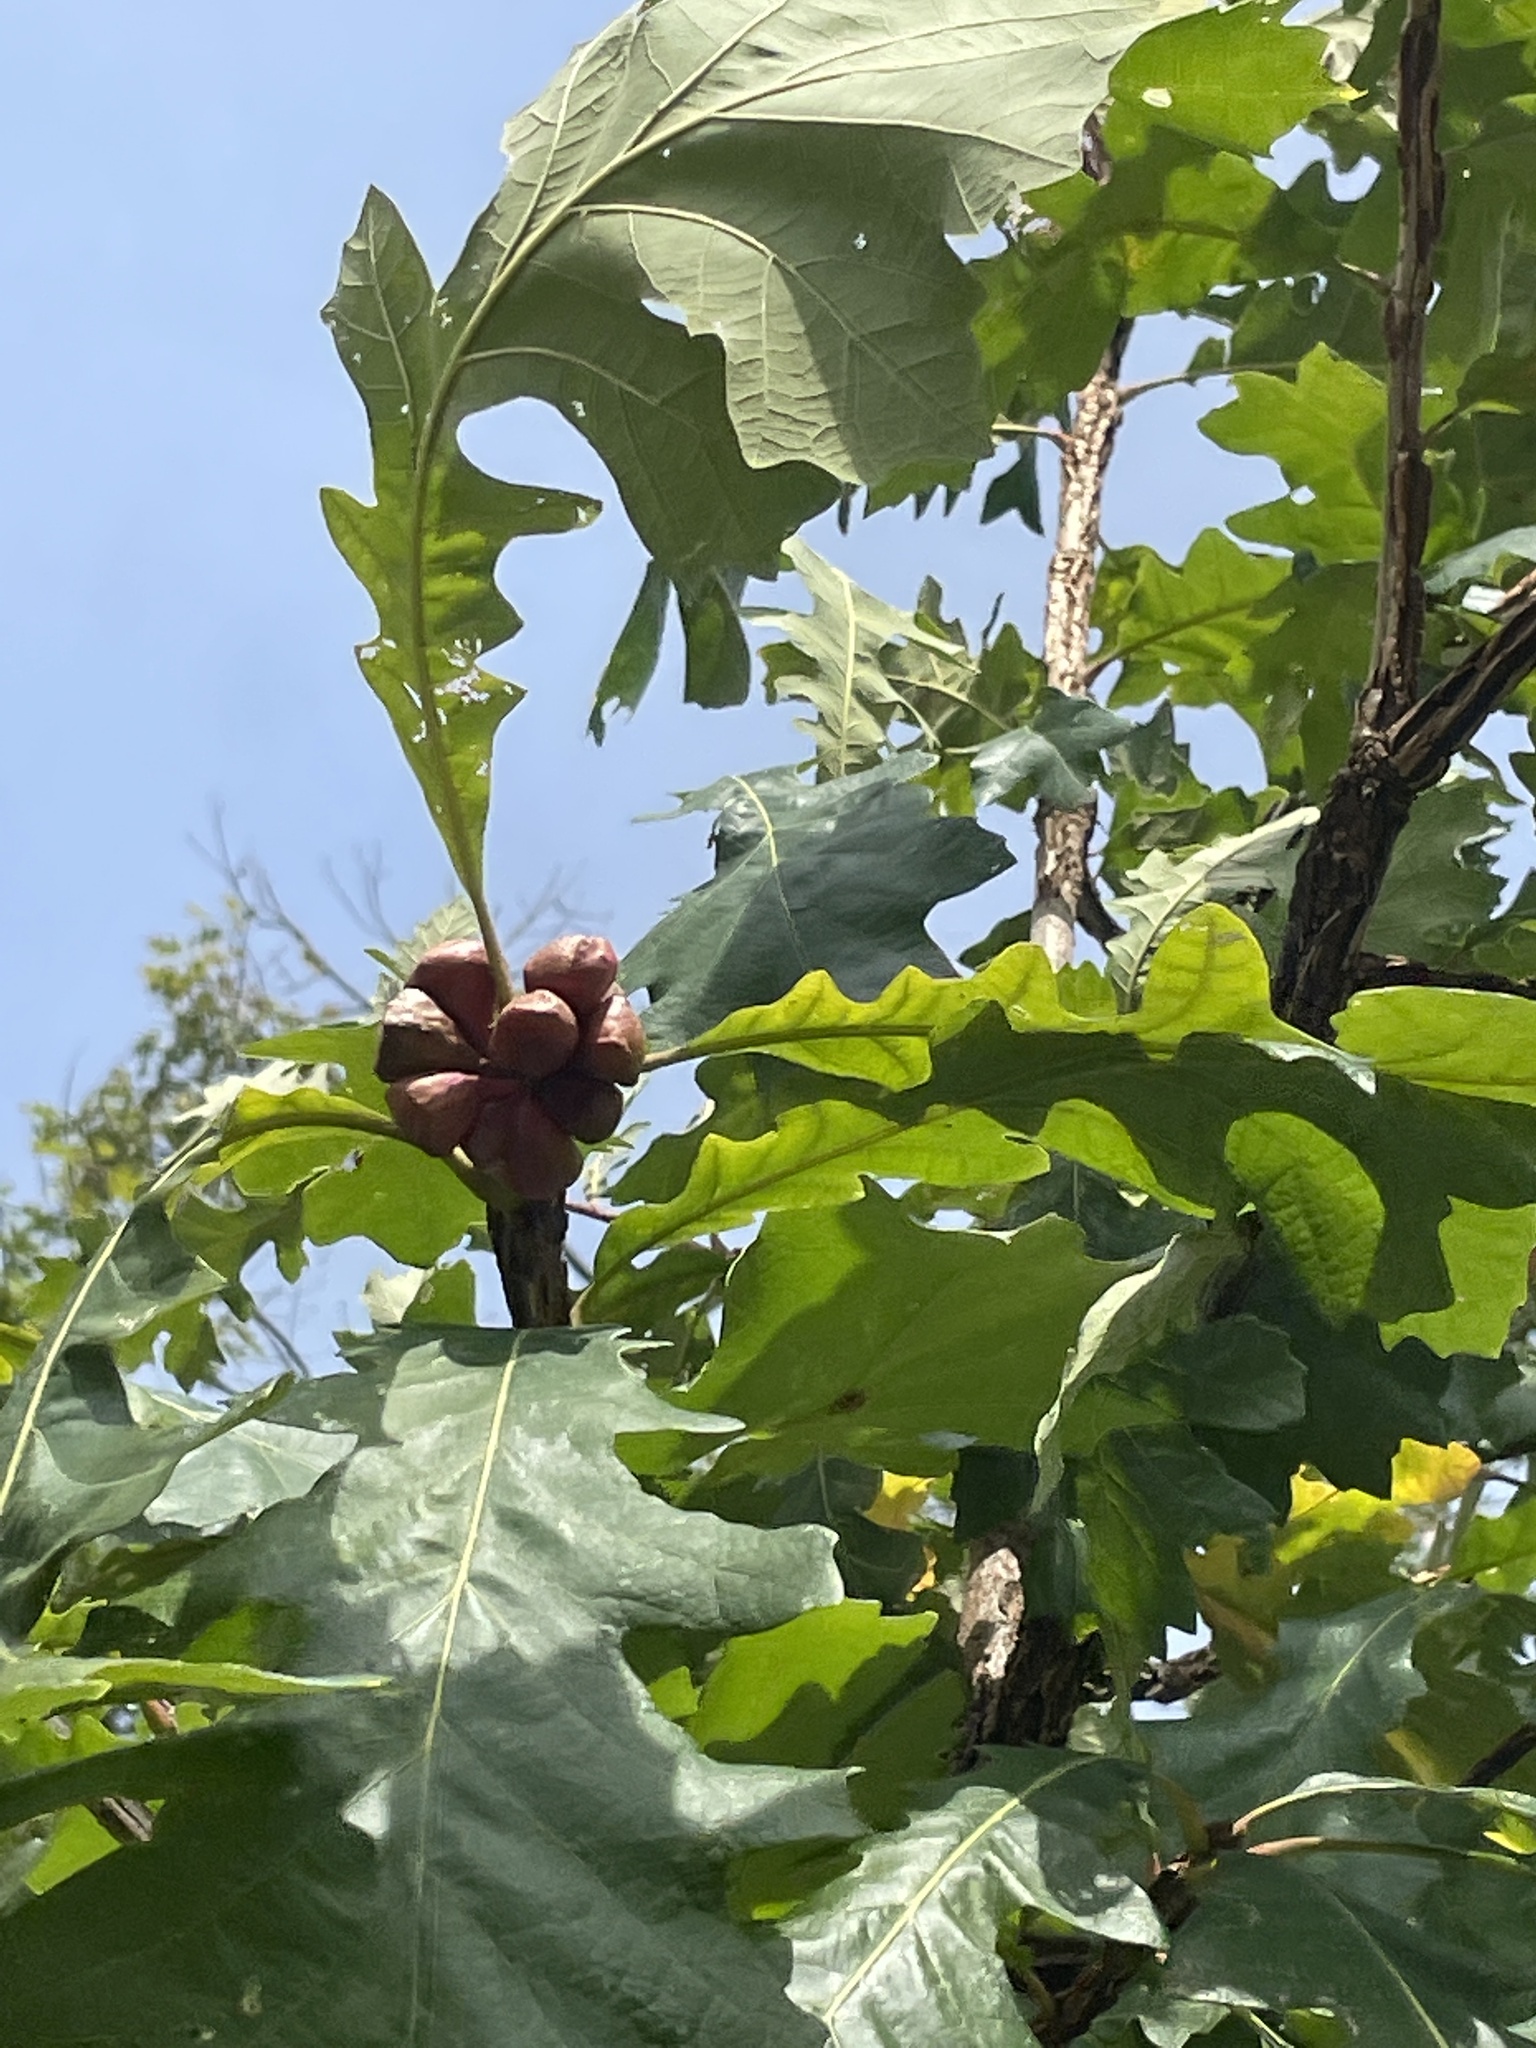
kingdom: Animalia
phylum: Arthropoda
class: Insecta
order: Hymenoptera
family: Cynipidae
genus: Andricus
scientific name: Andricus
